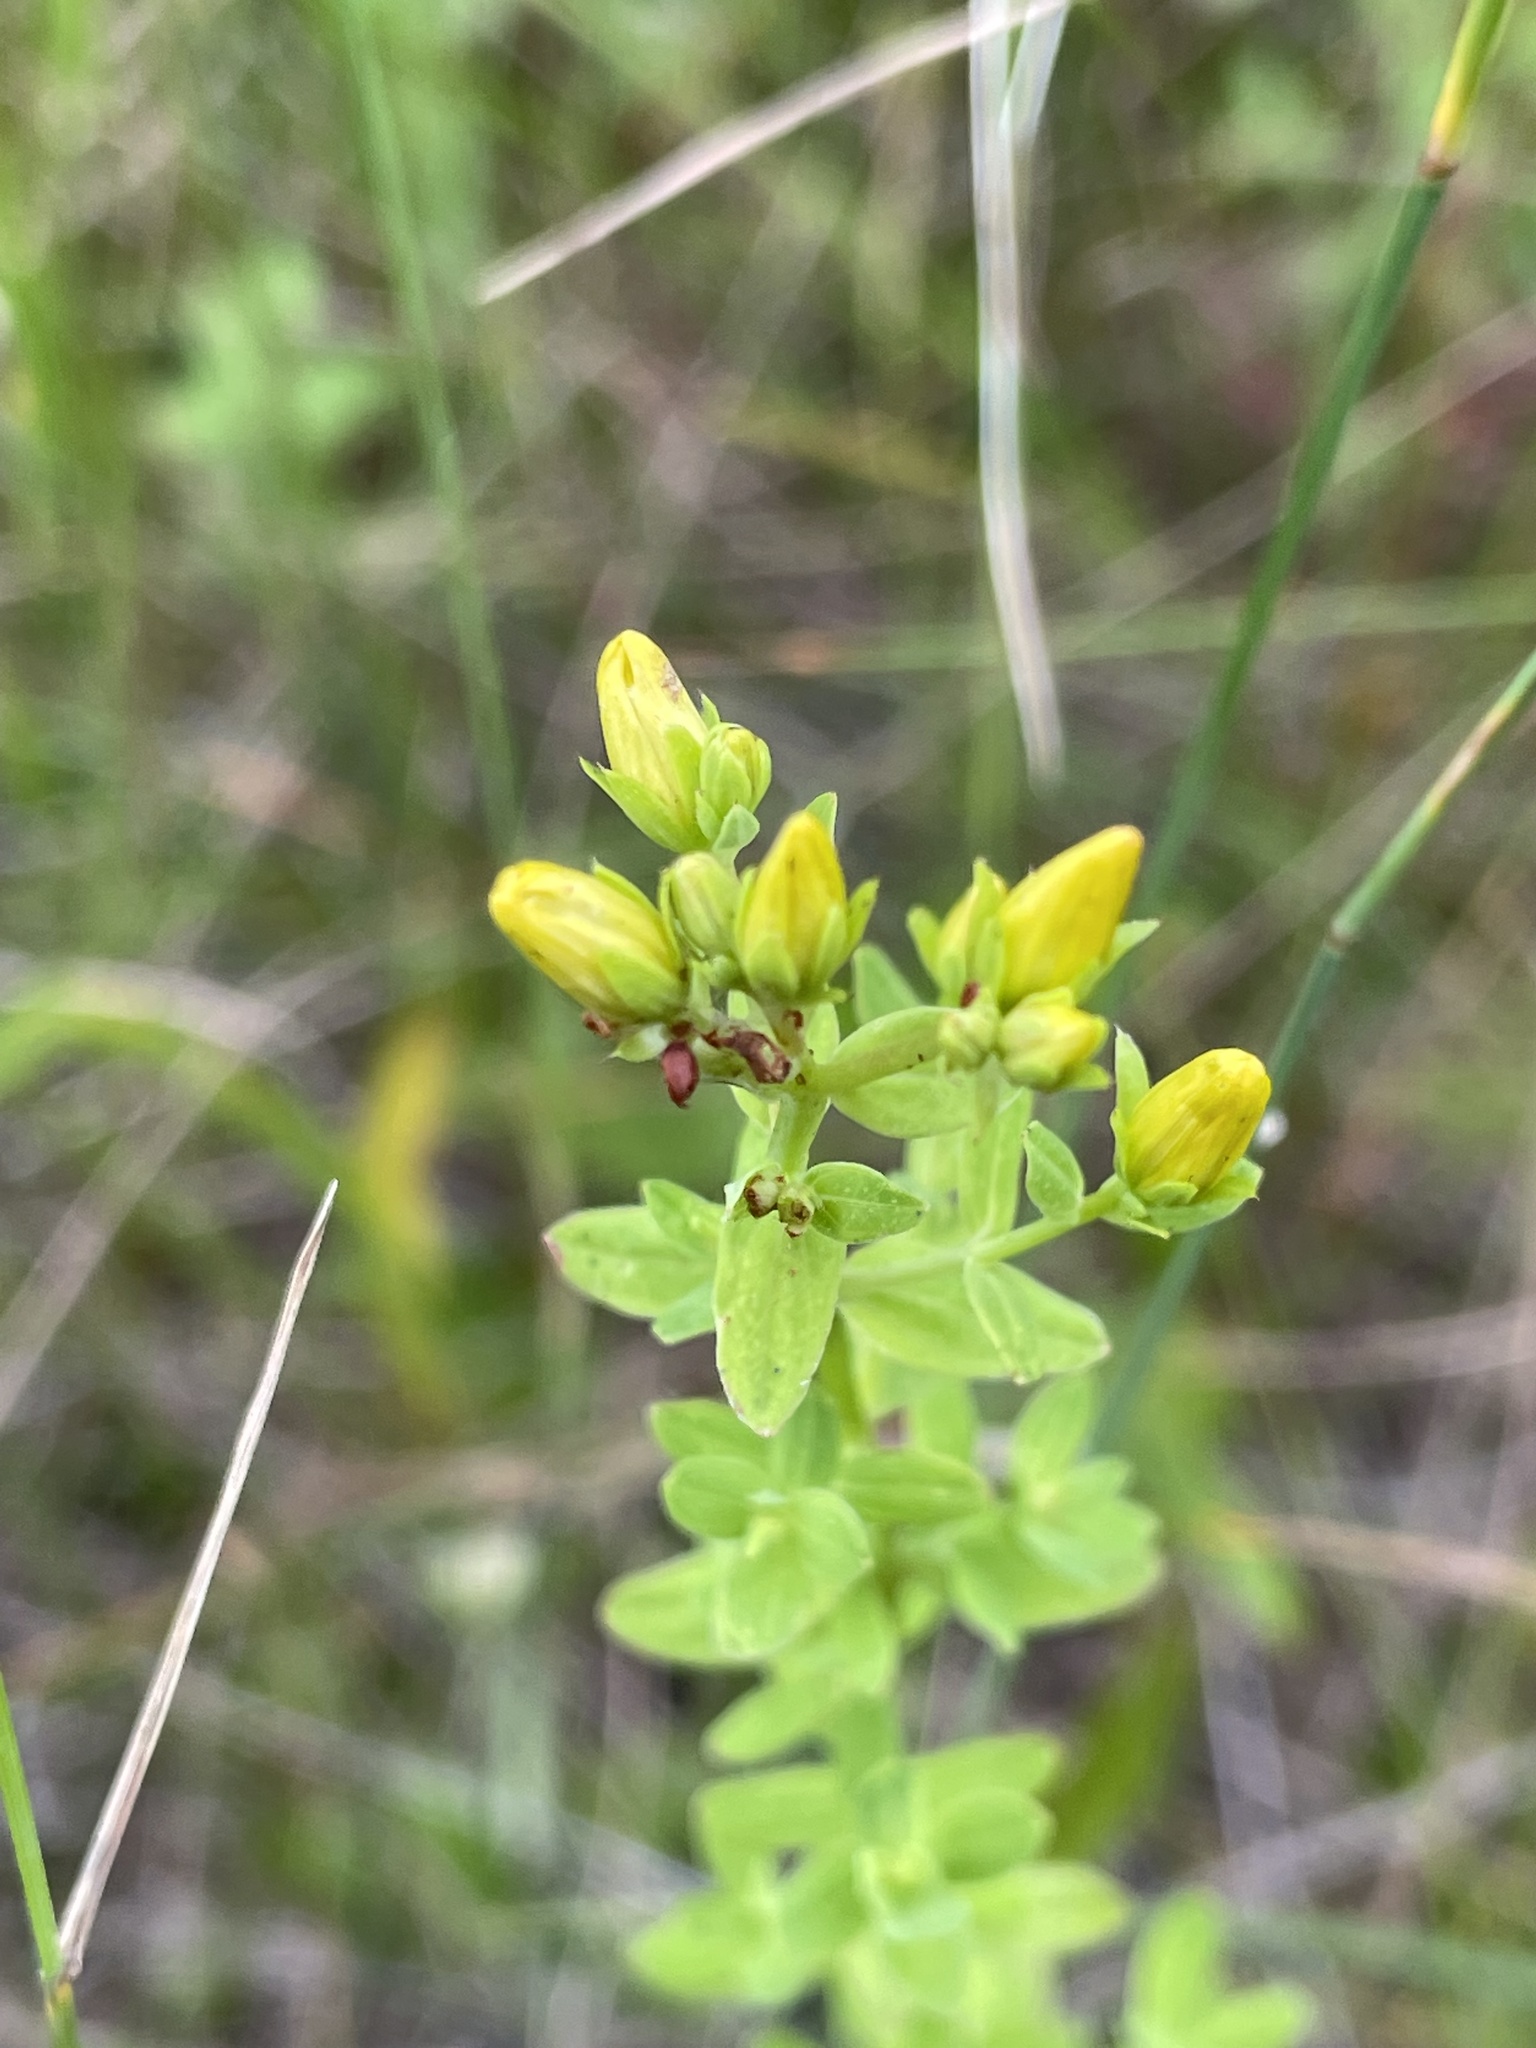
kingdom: Plantae
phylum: Tracheophyta
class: Magnoliopsida
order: Malpighiales
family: Hypericaceae
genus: Hypericum
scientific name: Hypericum perforatum
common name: Common st. johnswort
